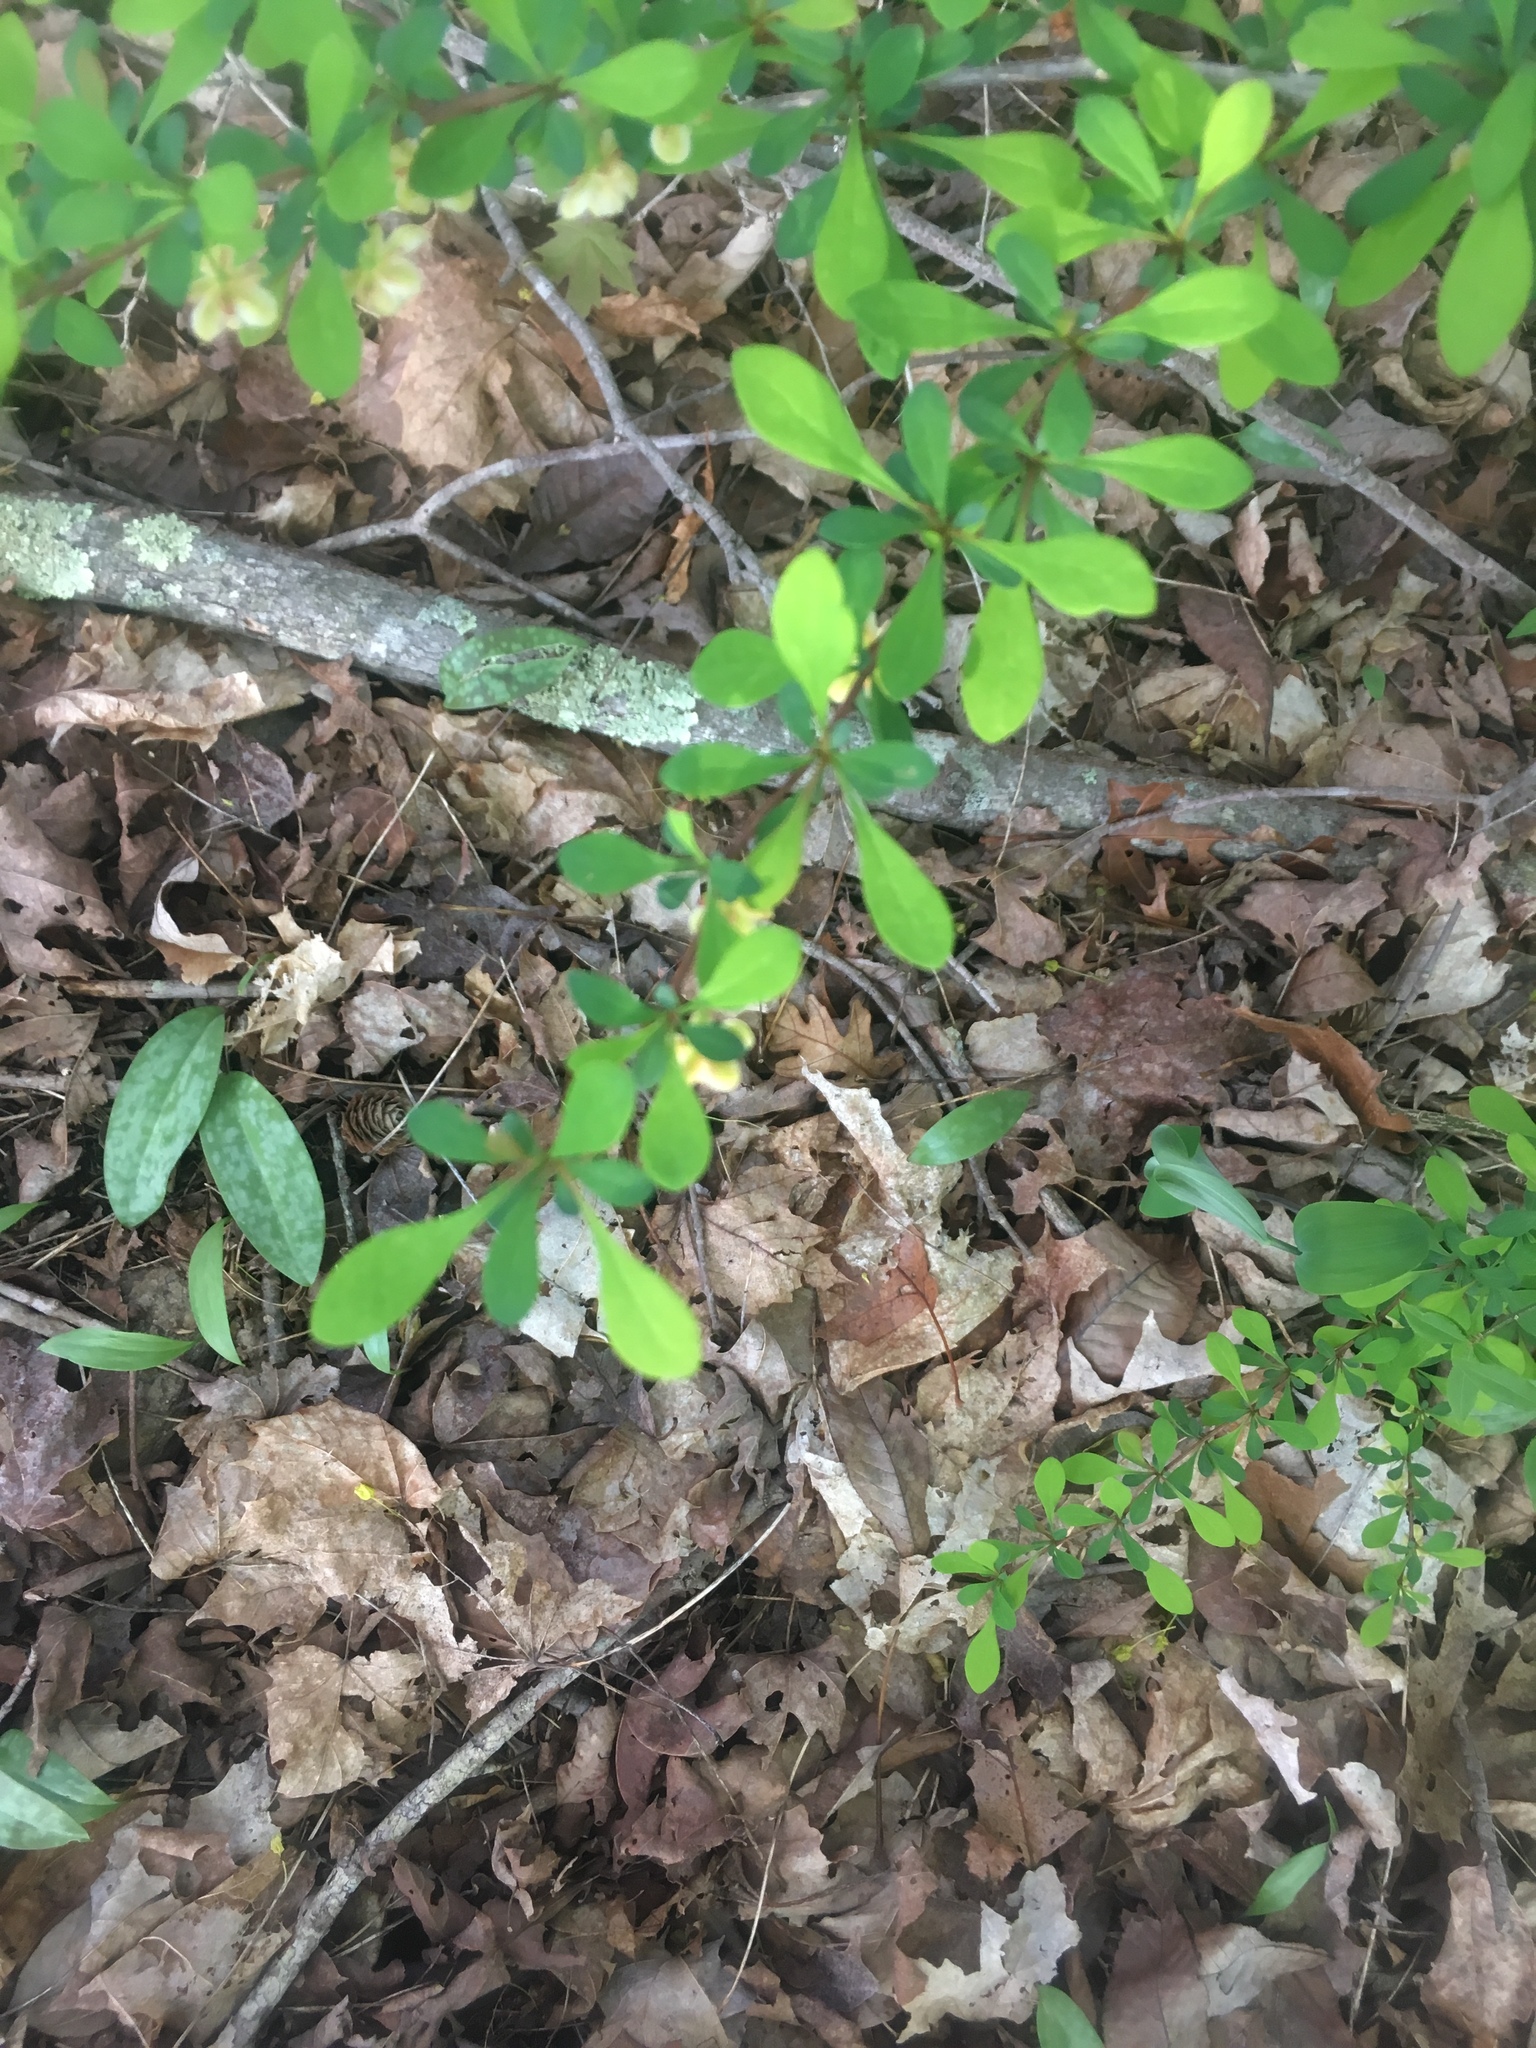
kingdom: Plantae
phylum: Tracheophyta
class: Magnoliopsida
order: Ranunculales
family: Berberidaceae
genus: Berberis
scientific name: Berberis thunbergii
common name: Japanese barberry
